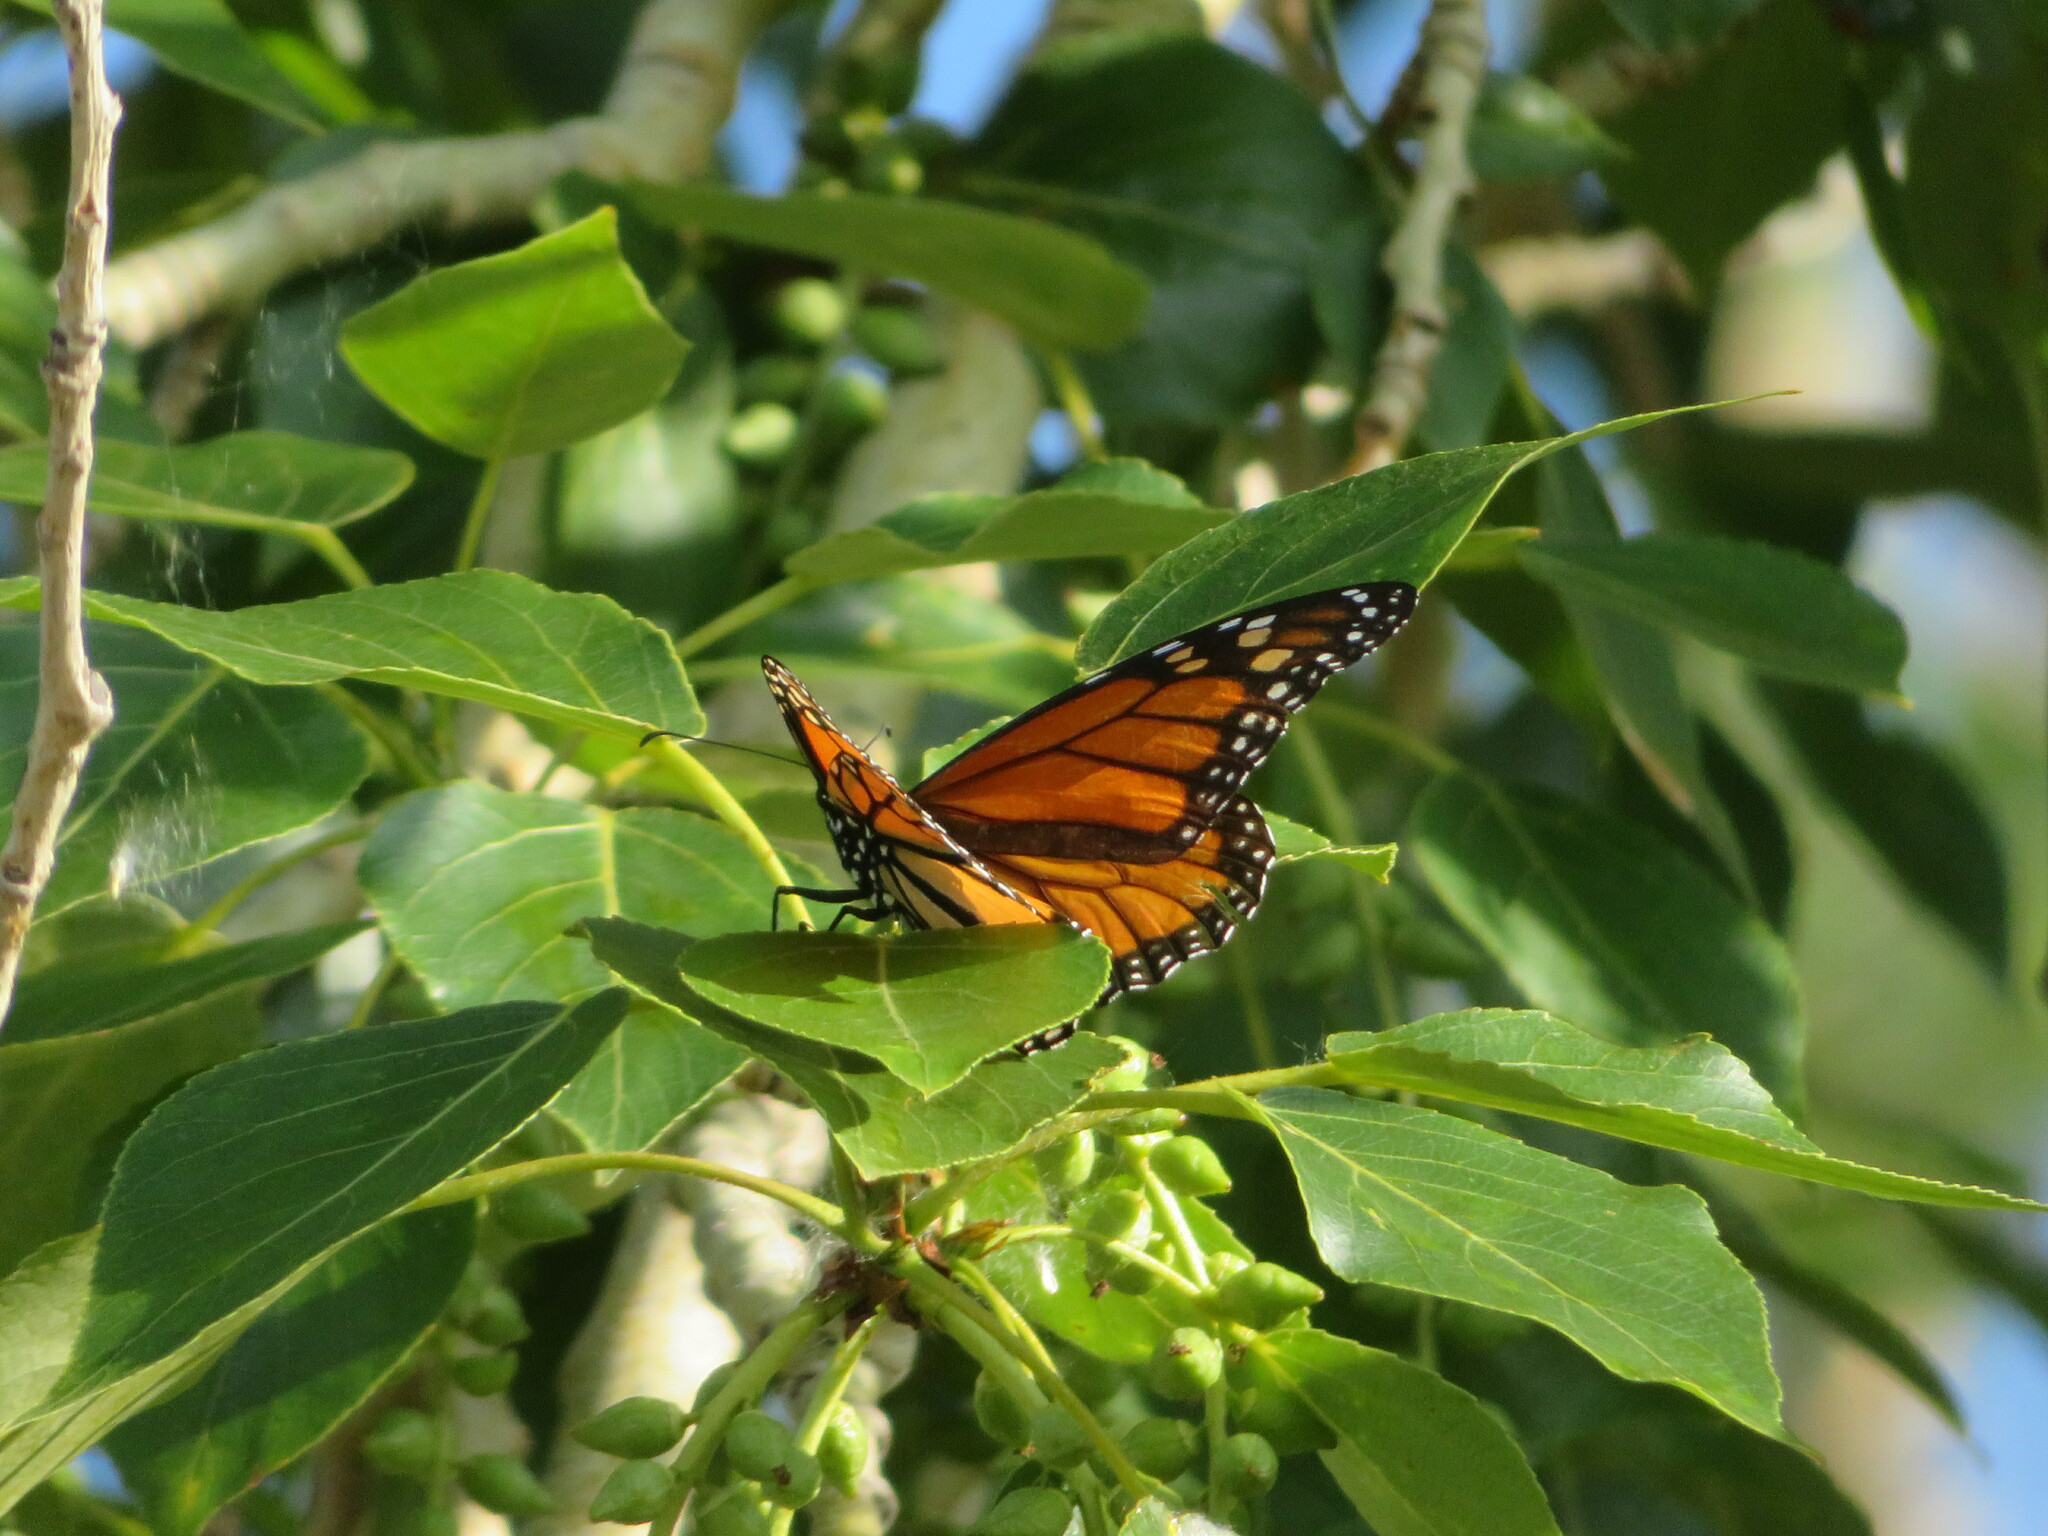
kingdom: Animalia
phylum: Arthropoda
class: Insecta
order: Lepidoptera
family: Nymphalidae
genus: Danaus
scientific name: Danaus plexippus
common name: Monarch
